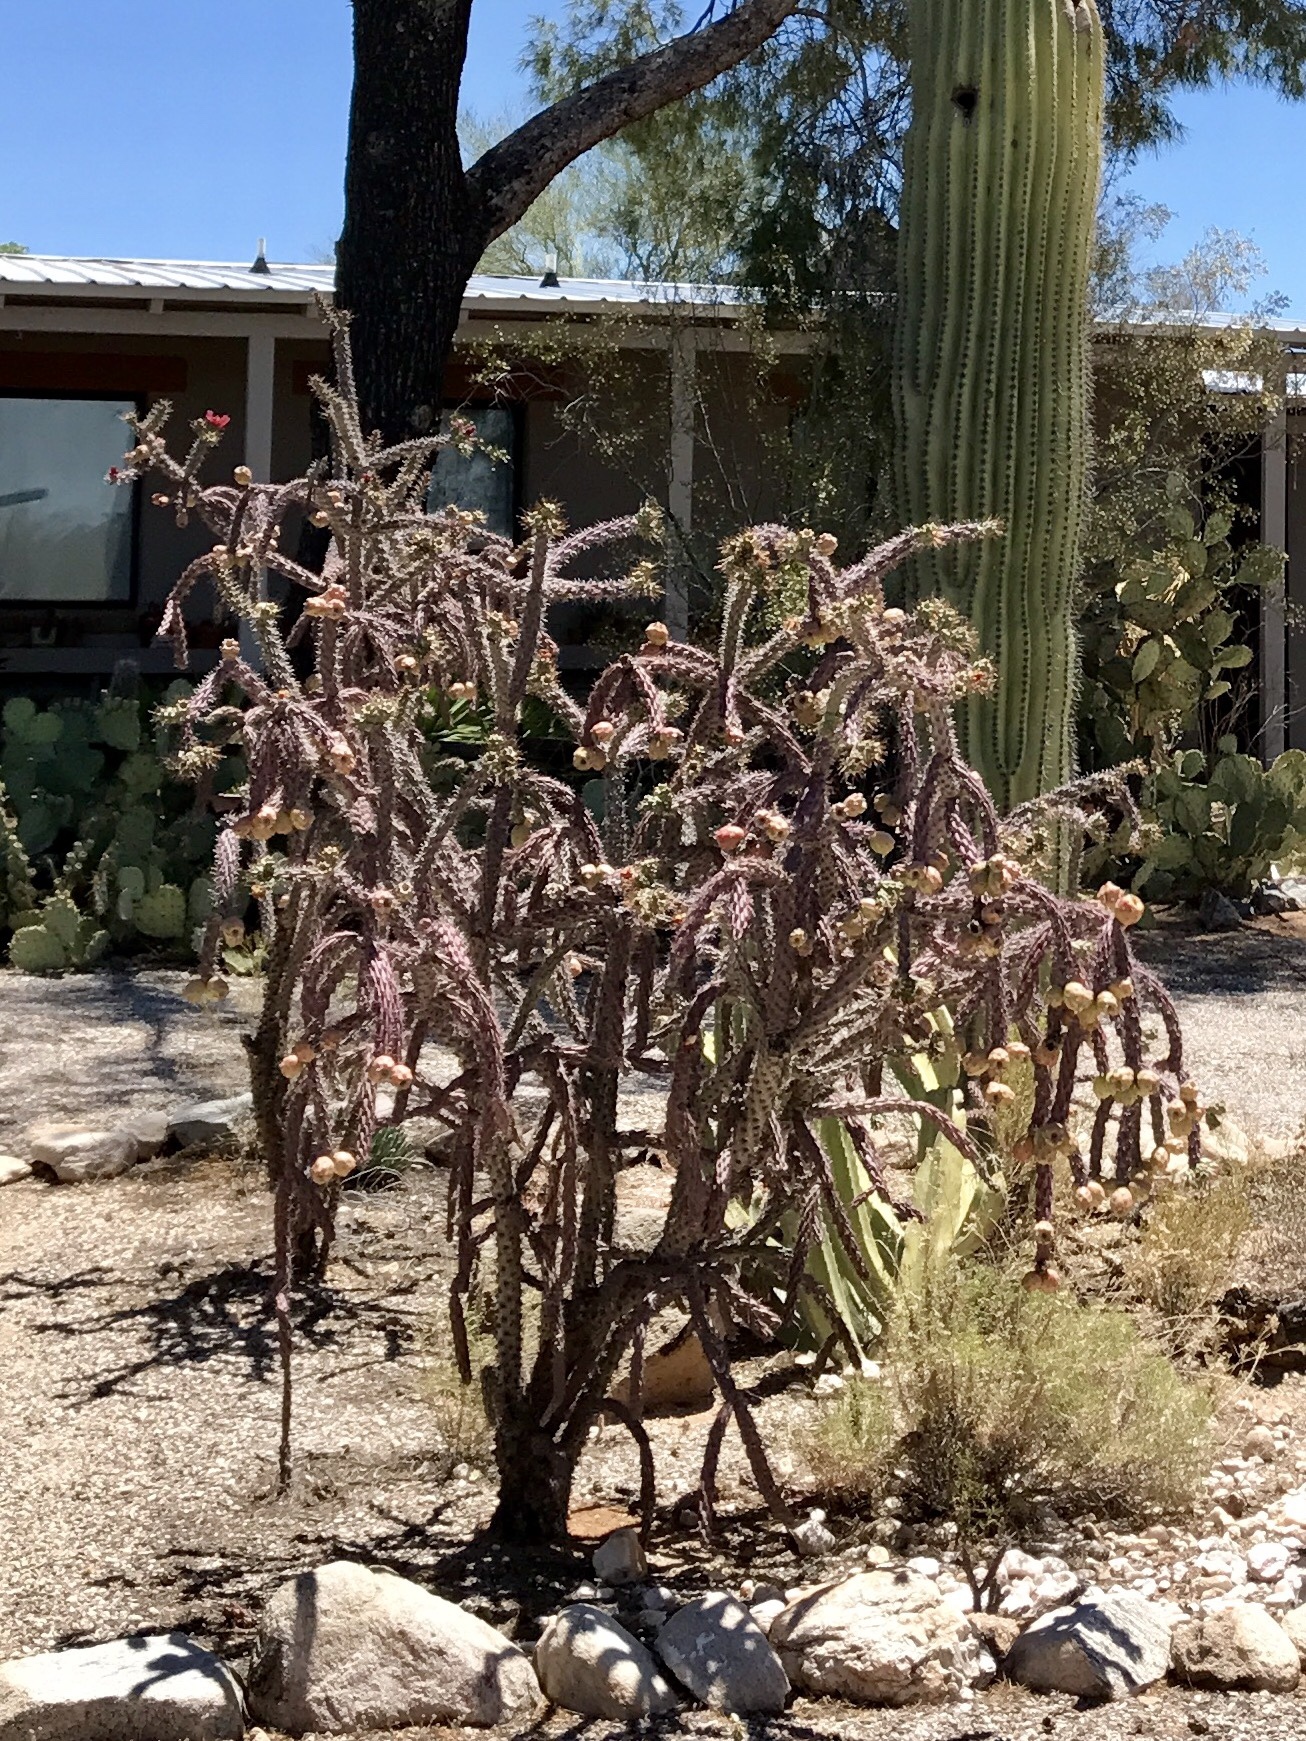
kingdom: Plantae
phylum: Tracheophyta
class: Magnoliopsida
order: Caryophyllales
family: Cactaceae
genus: Cylindropuntia
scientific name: Cylindropuntia thurberi
